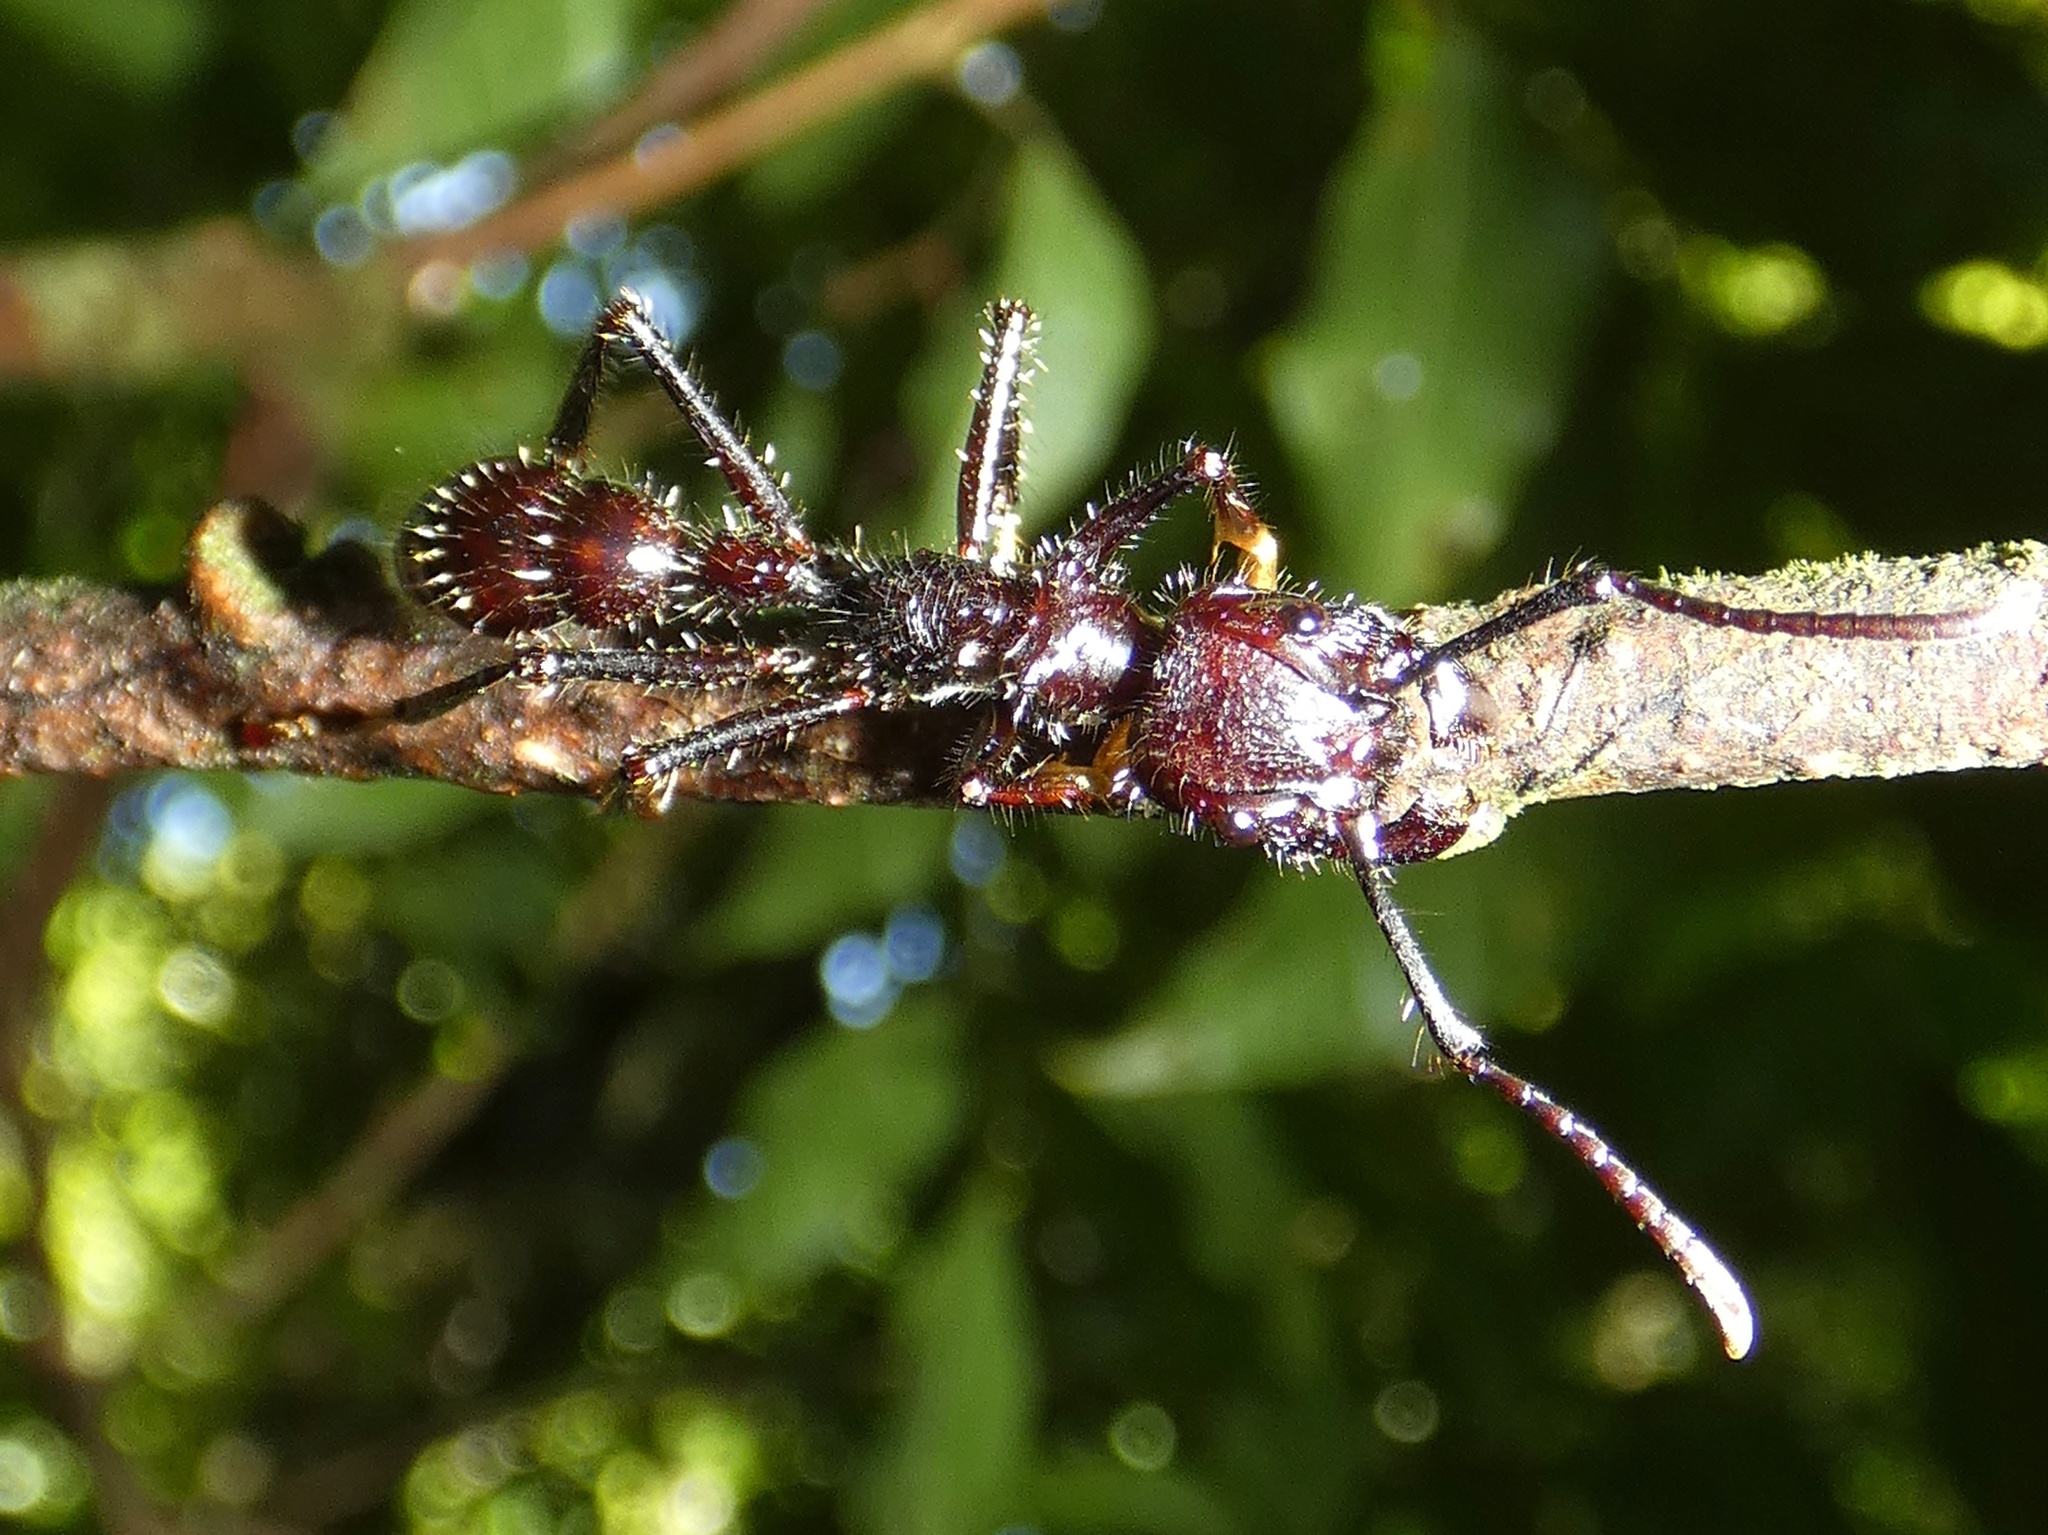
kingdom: Animalia
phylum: Arthropoda
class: Insecta
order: Hymenoptera
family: Formicidae
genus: Paraponera
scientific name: Paraponera clavata
